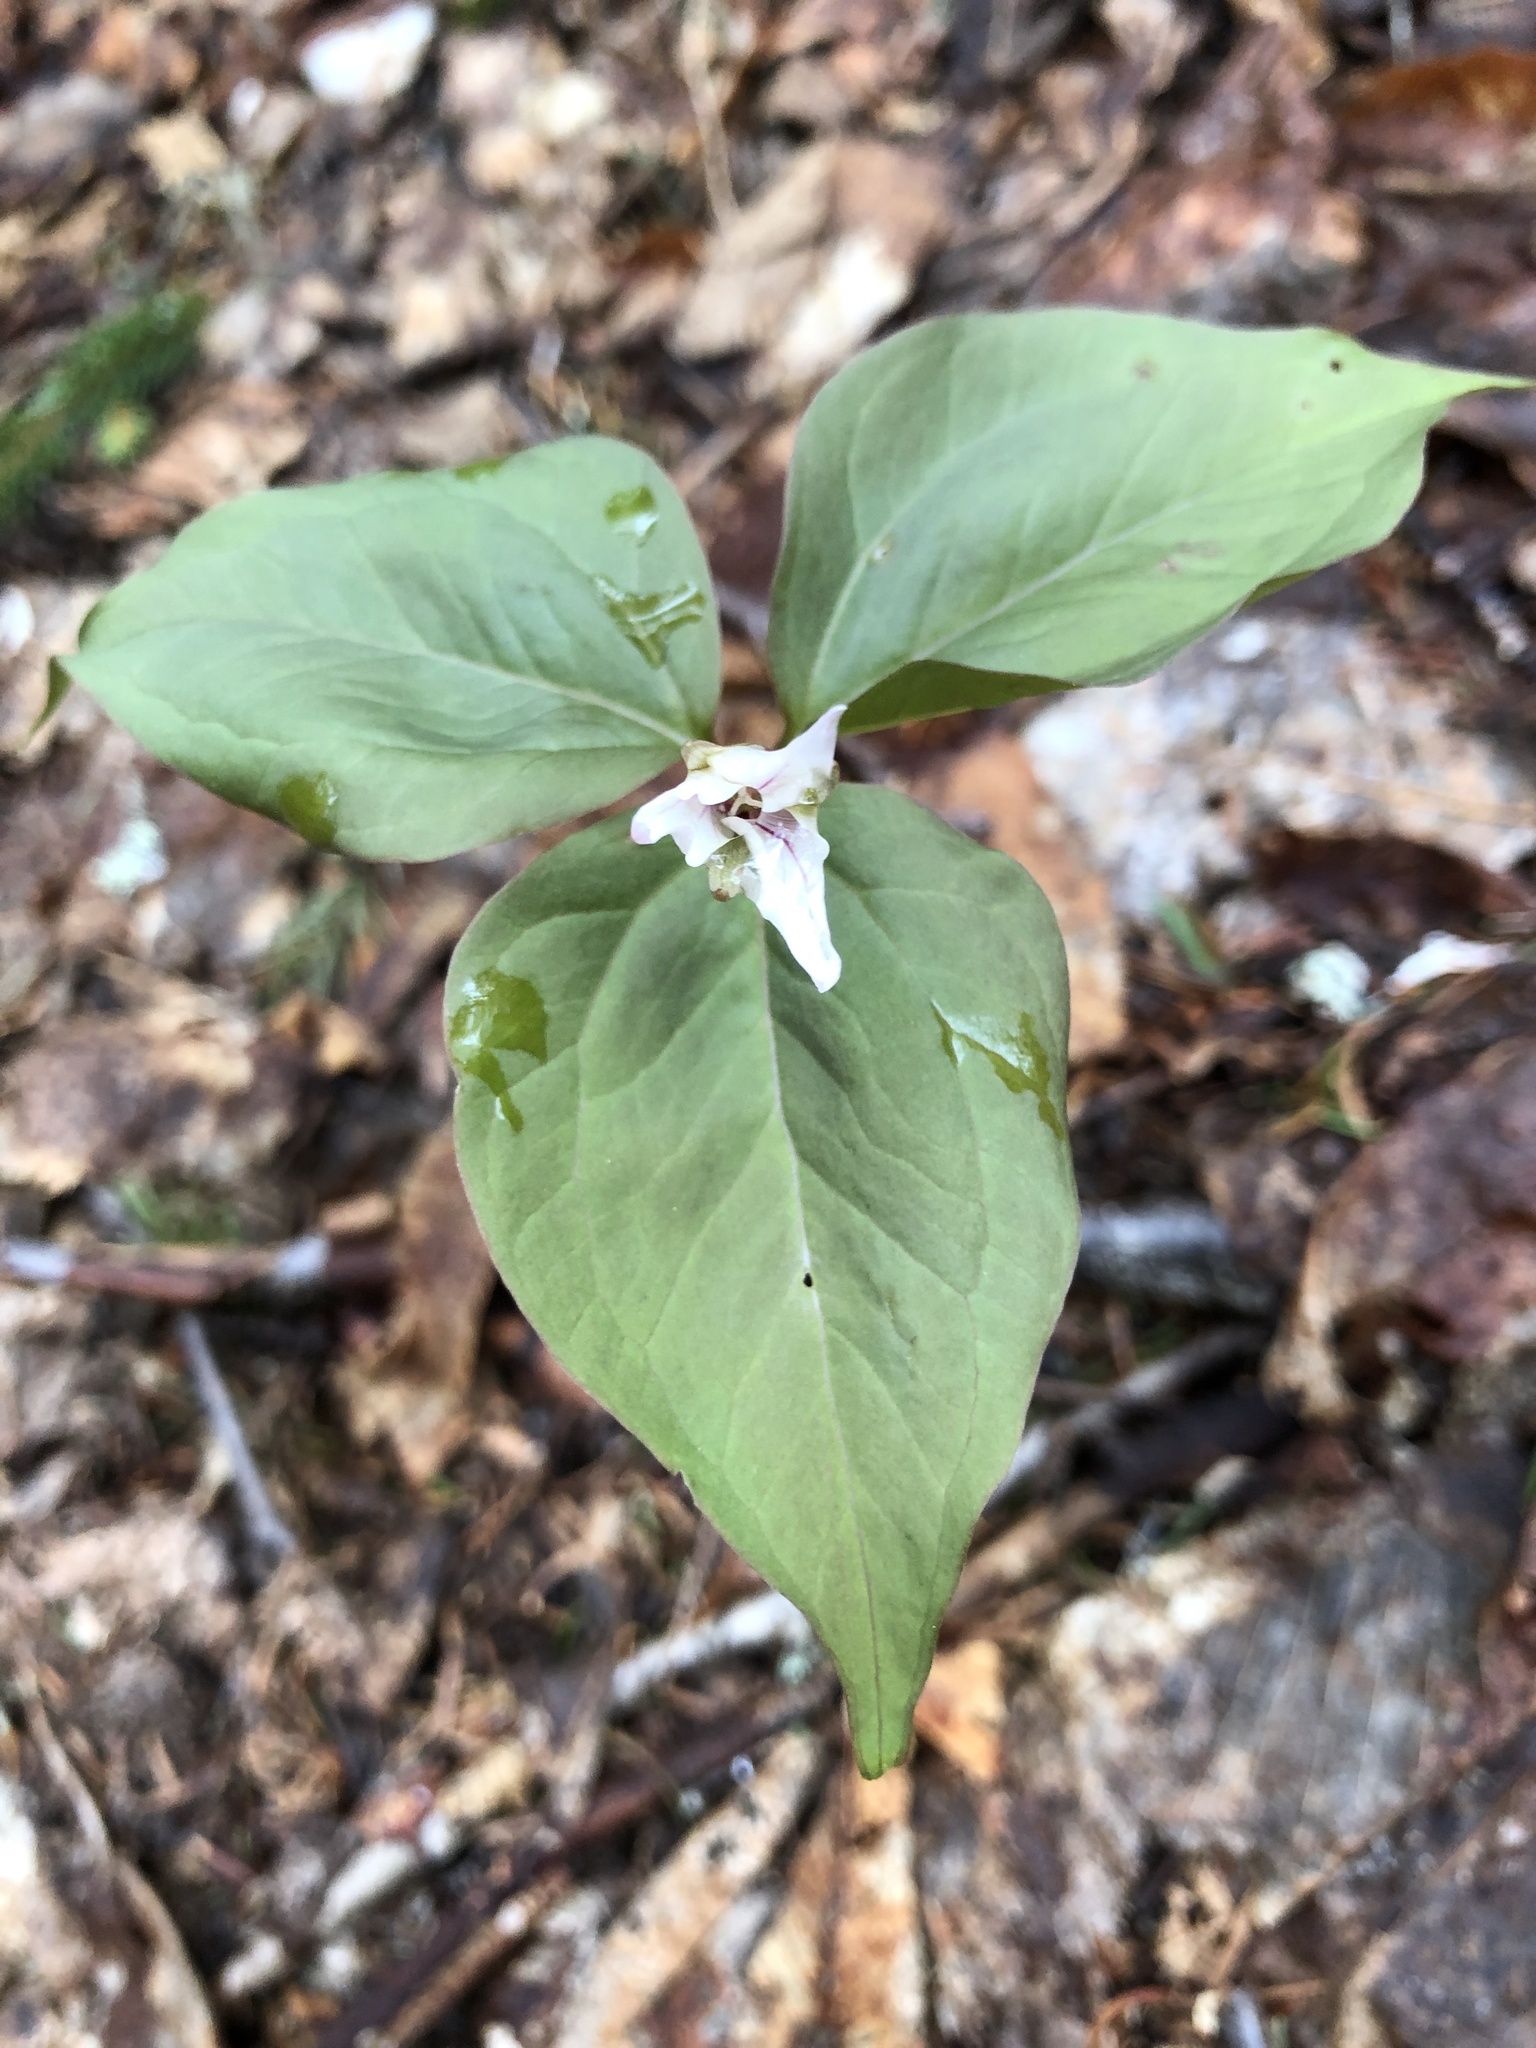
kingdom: Plantae
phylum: Tracheophyta
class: Liliopsida
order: Liliales
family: Melanthiaceae
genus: Trillium
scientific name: Trillium undulatum
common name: Paint trillium
